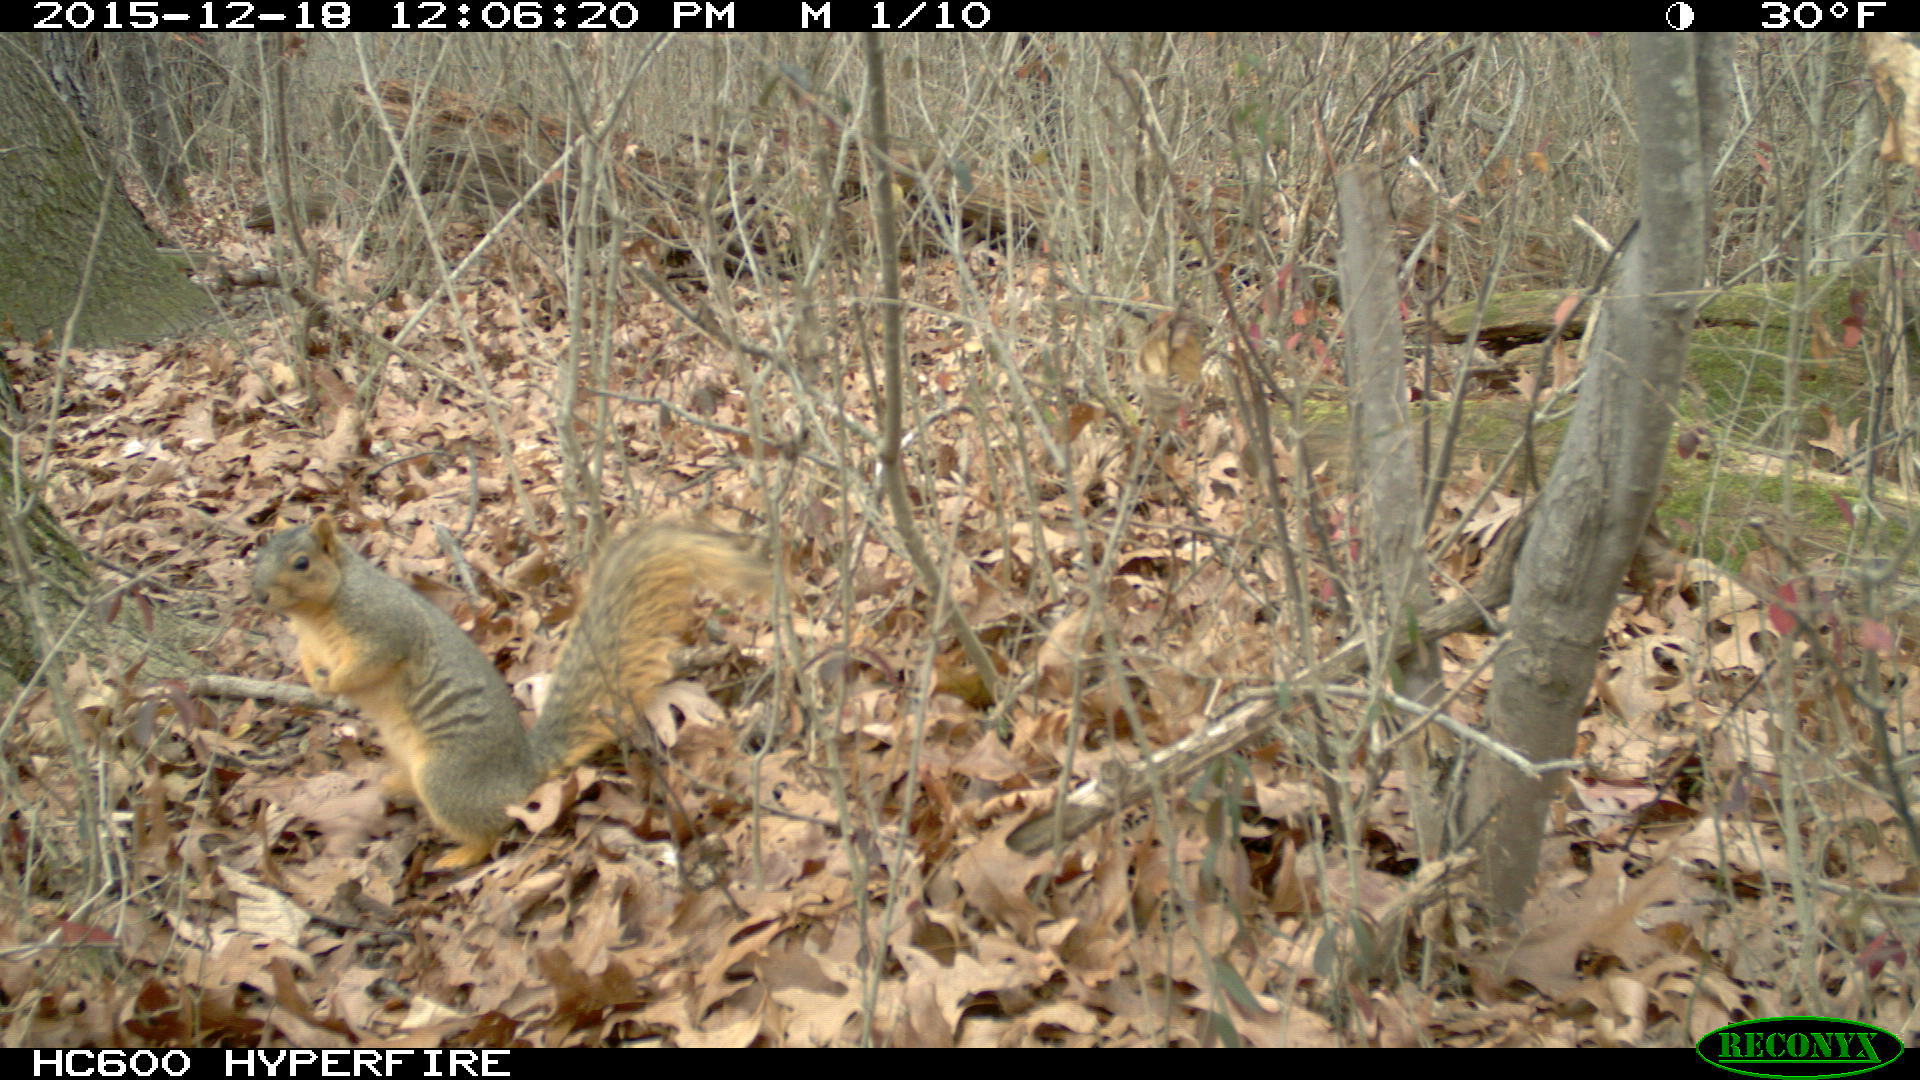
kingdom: Animalia
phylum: Chordata
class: Mammalia
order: Rodentia
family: Sciuridae
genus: Sciurus
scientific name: Sciurus niger
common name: Fox squirrel
